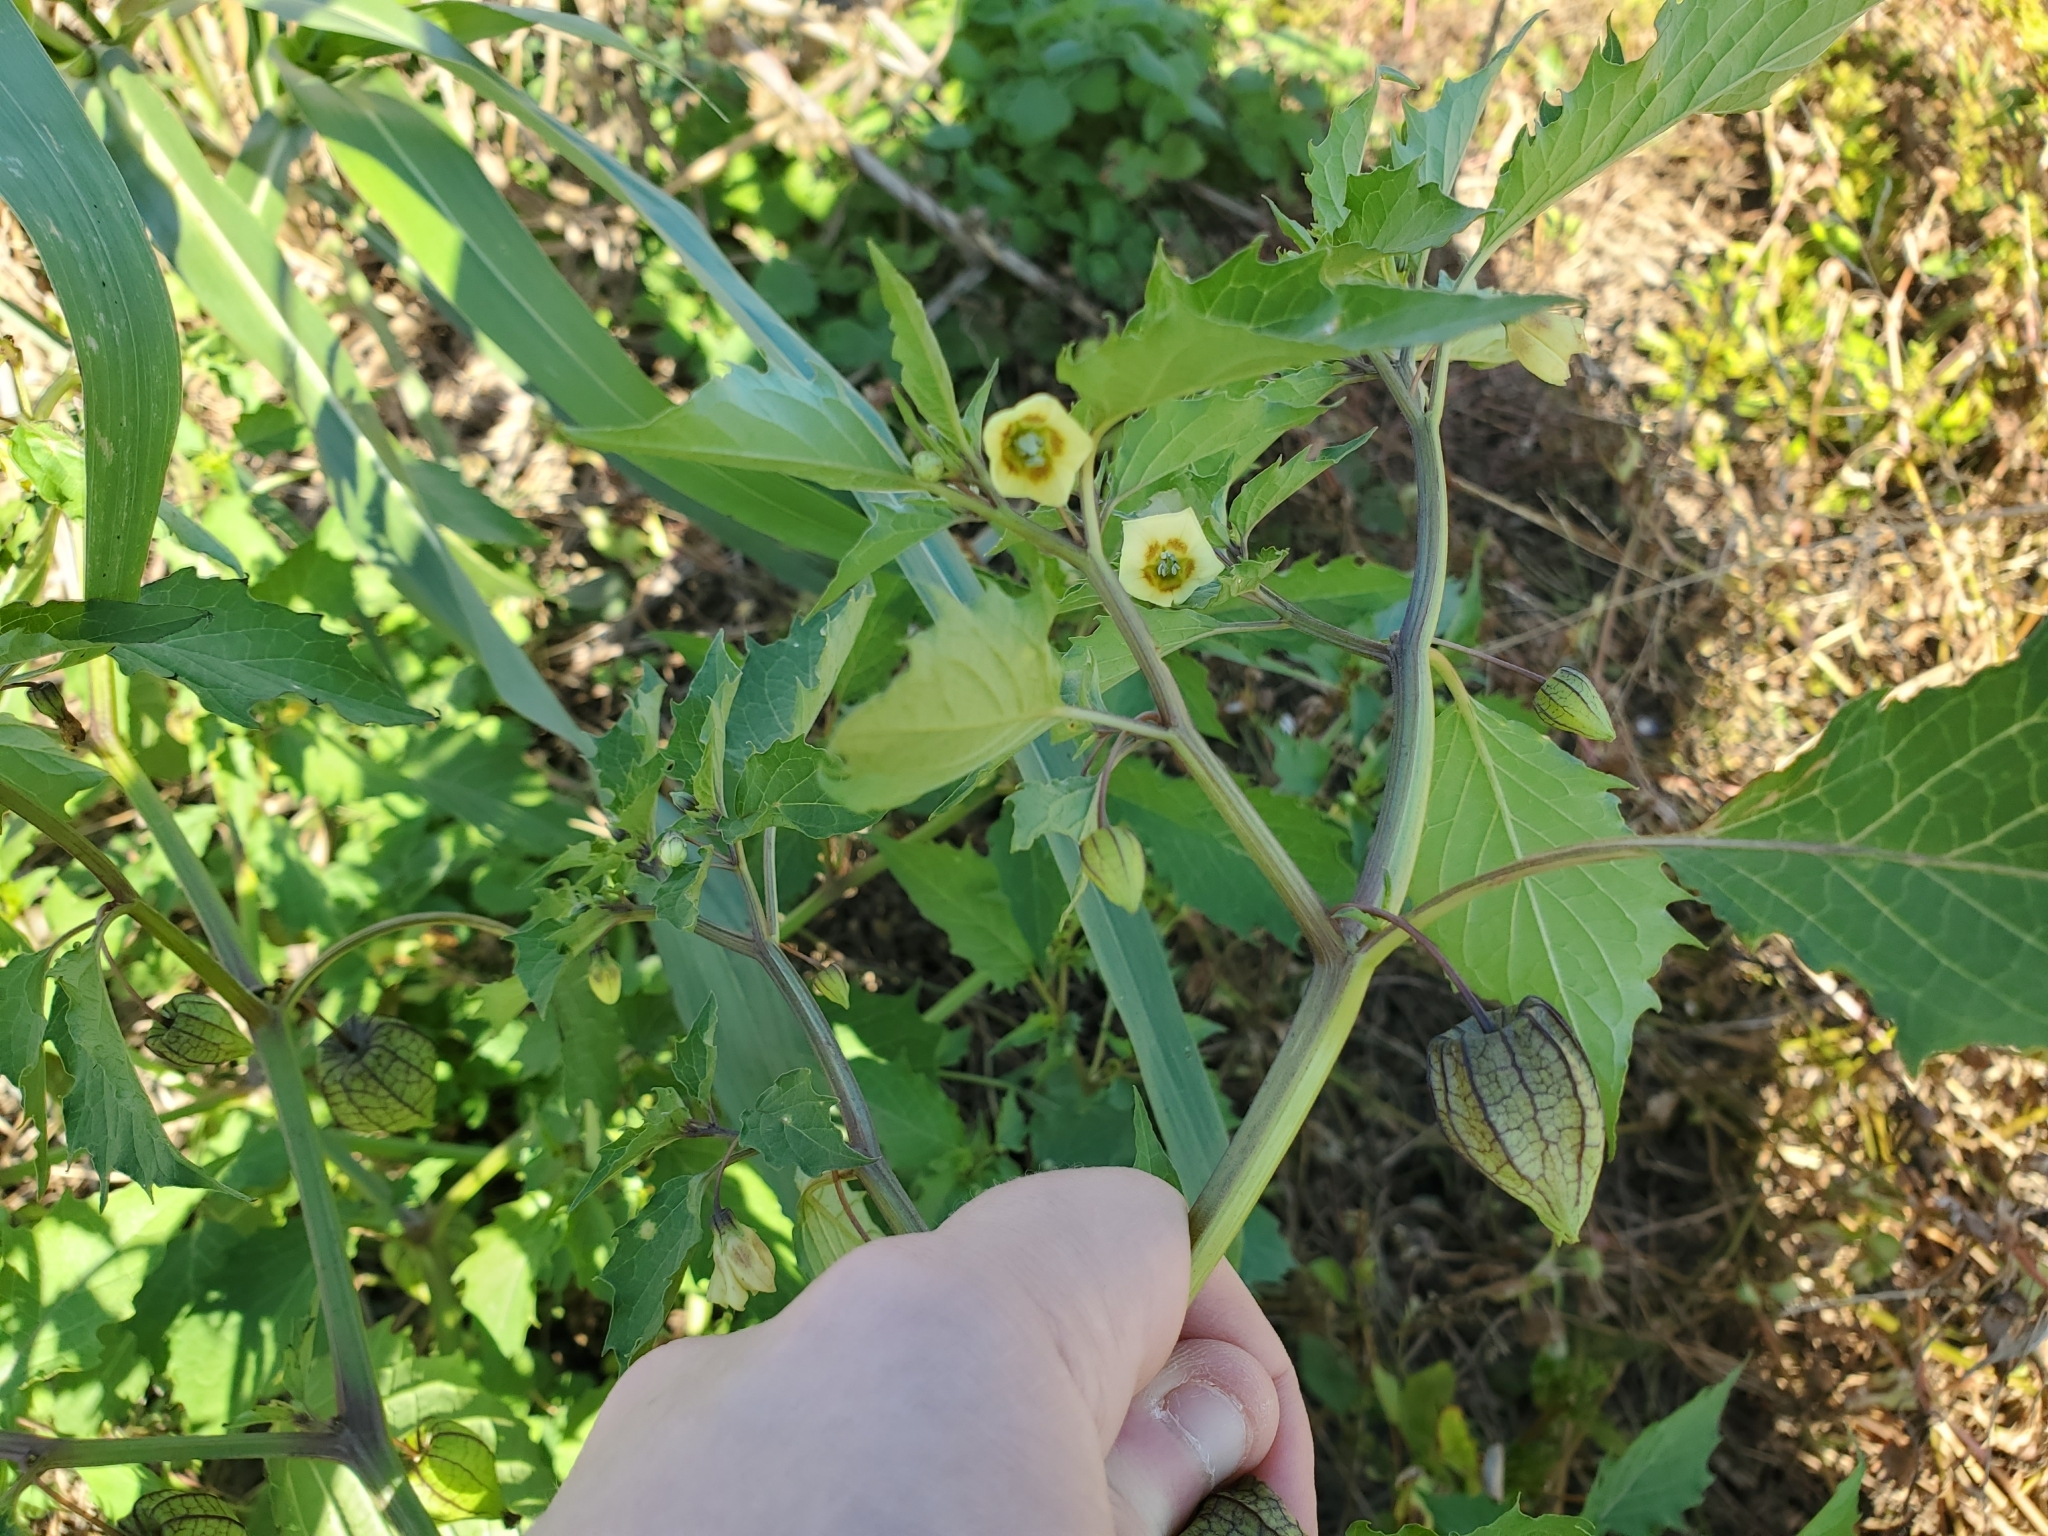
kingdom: Plantae
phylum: Tracheophyta
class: Magnoliopsida
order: Solanales
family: Solanaceae
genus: Physalis
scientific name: Physalis angulata
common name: Angular winter-cherry
